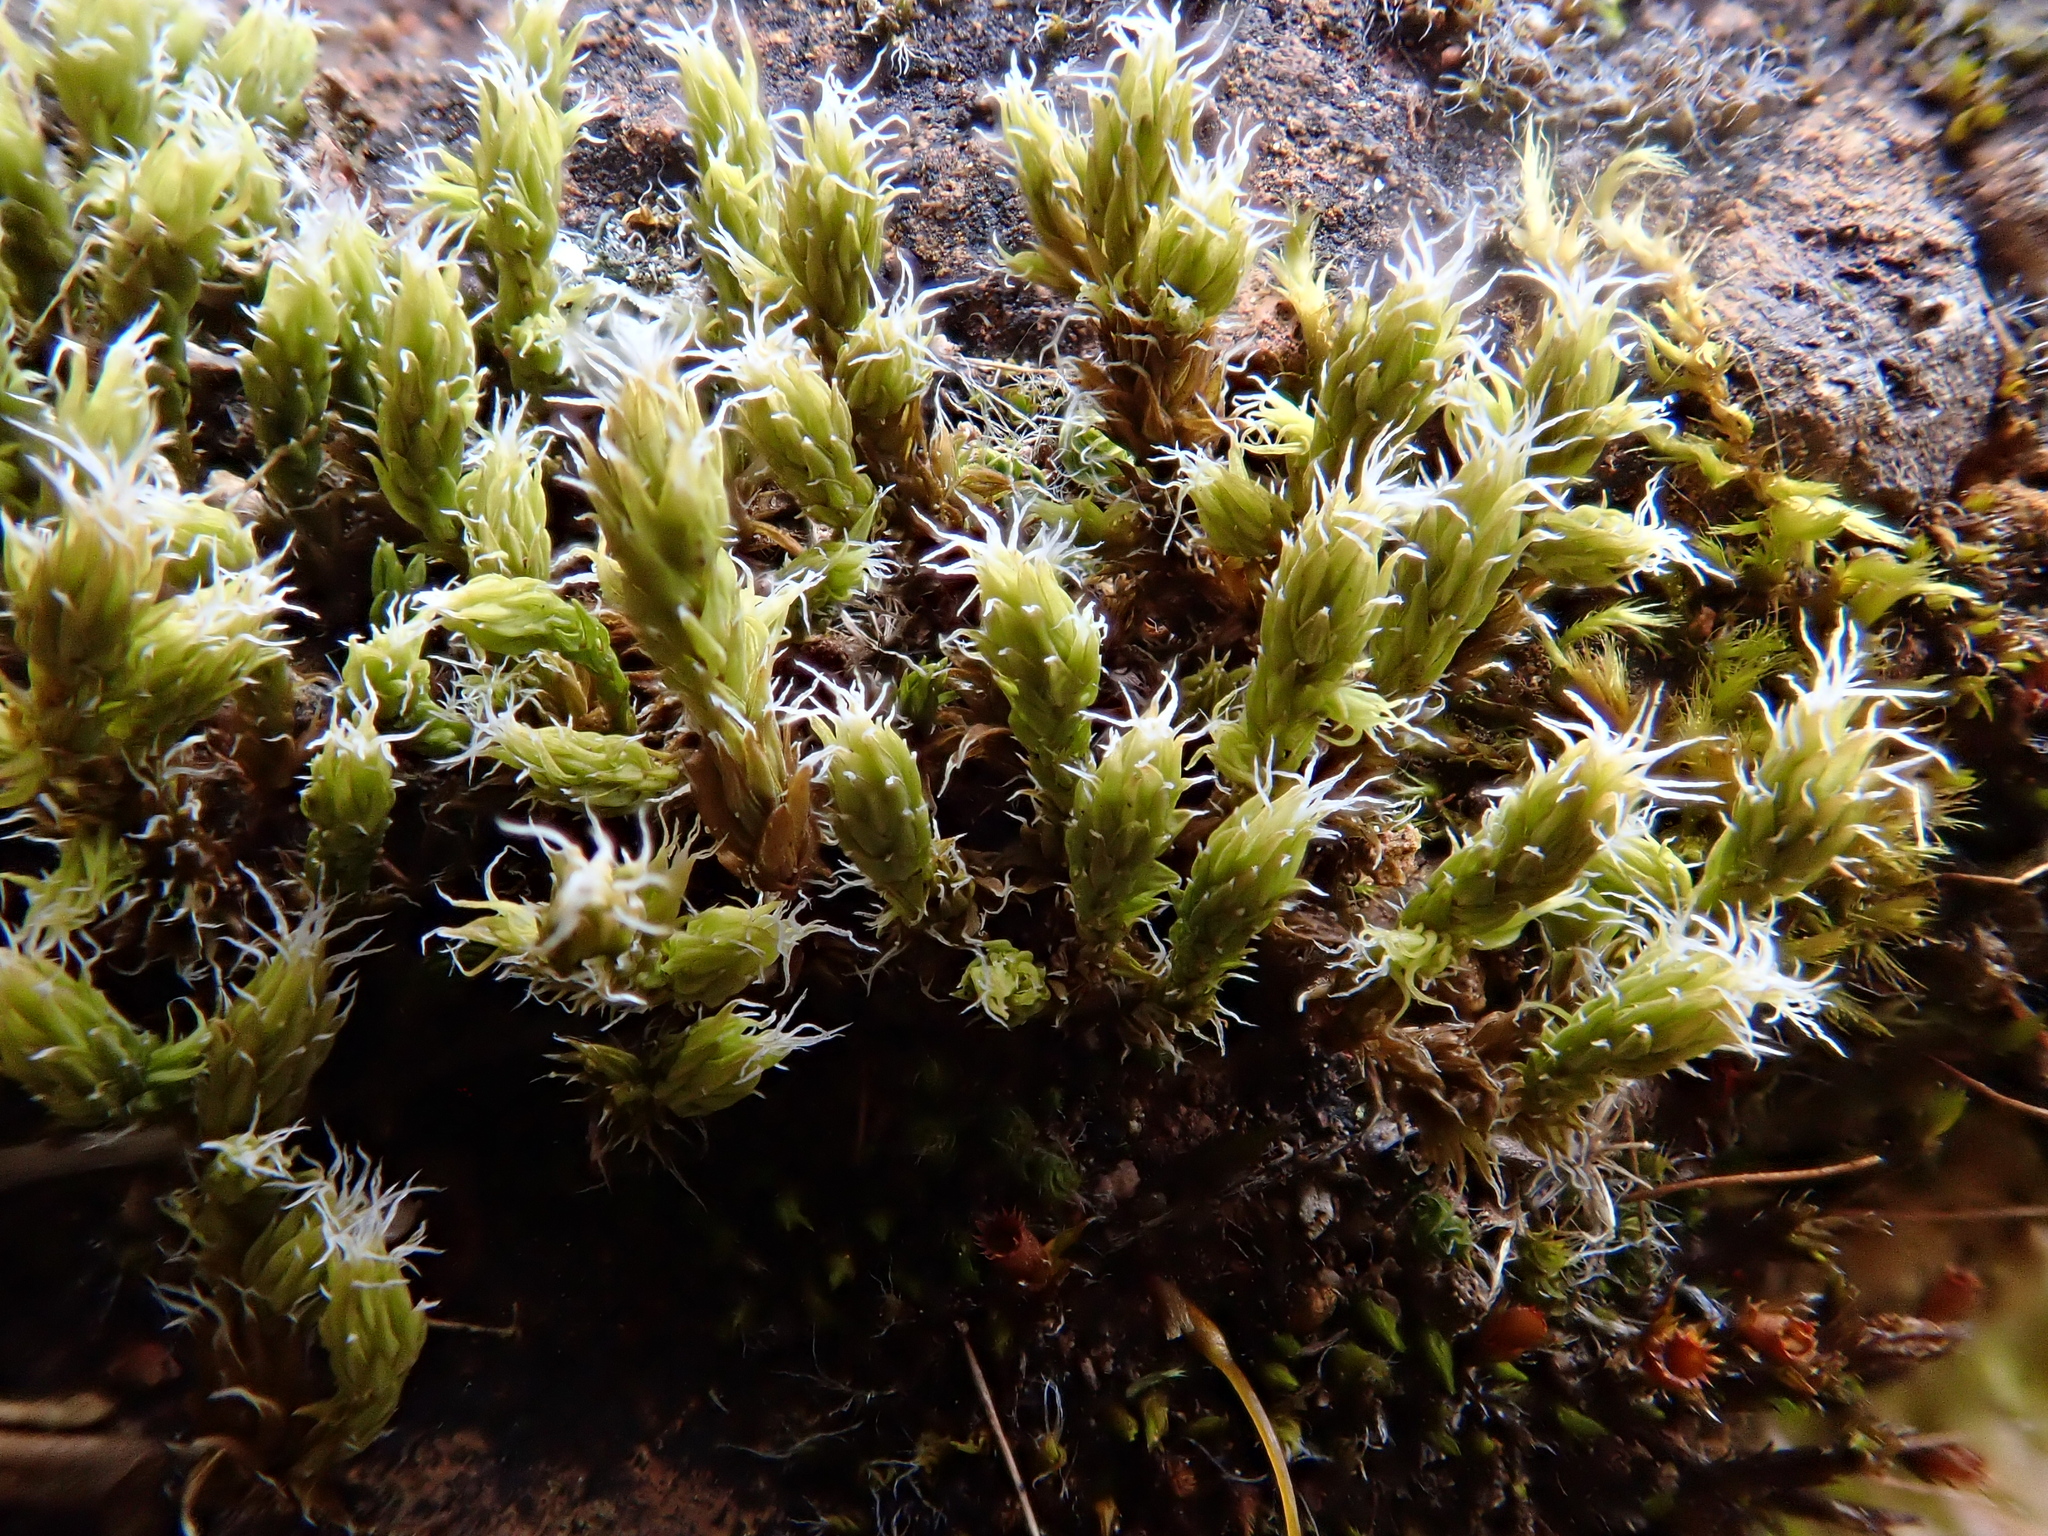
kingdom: Plantae
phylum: Bryophyta
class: Bryopsida
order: Grimmiales
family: Grimmiaceae
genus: Niphotrichum
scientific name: Niphotrichum canescens
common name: Hoary fringe-moss
